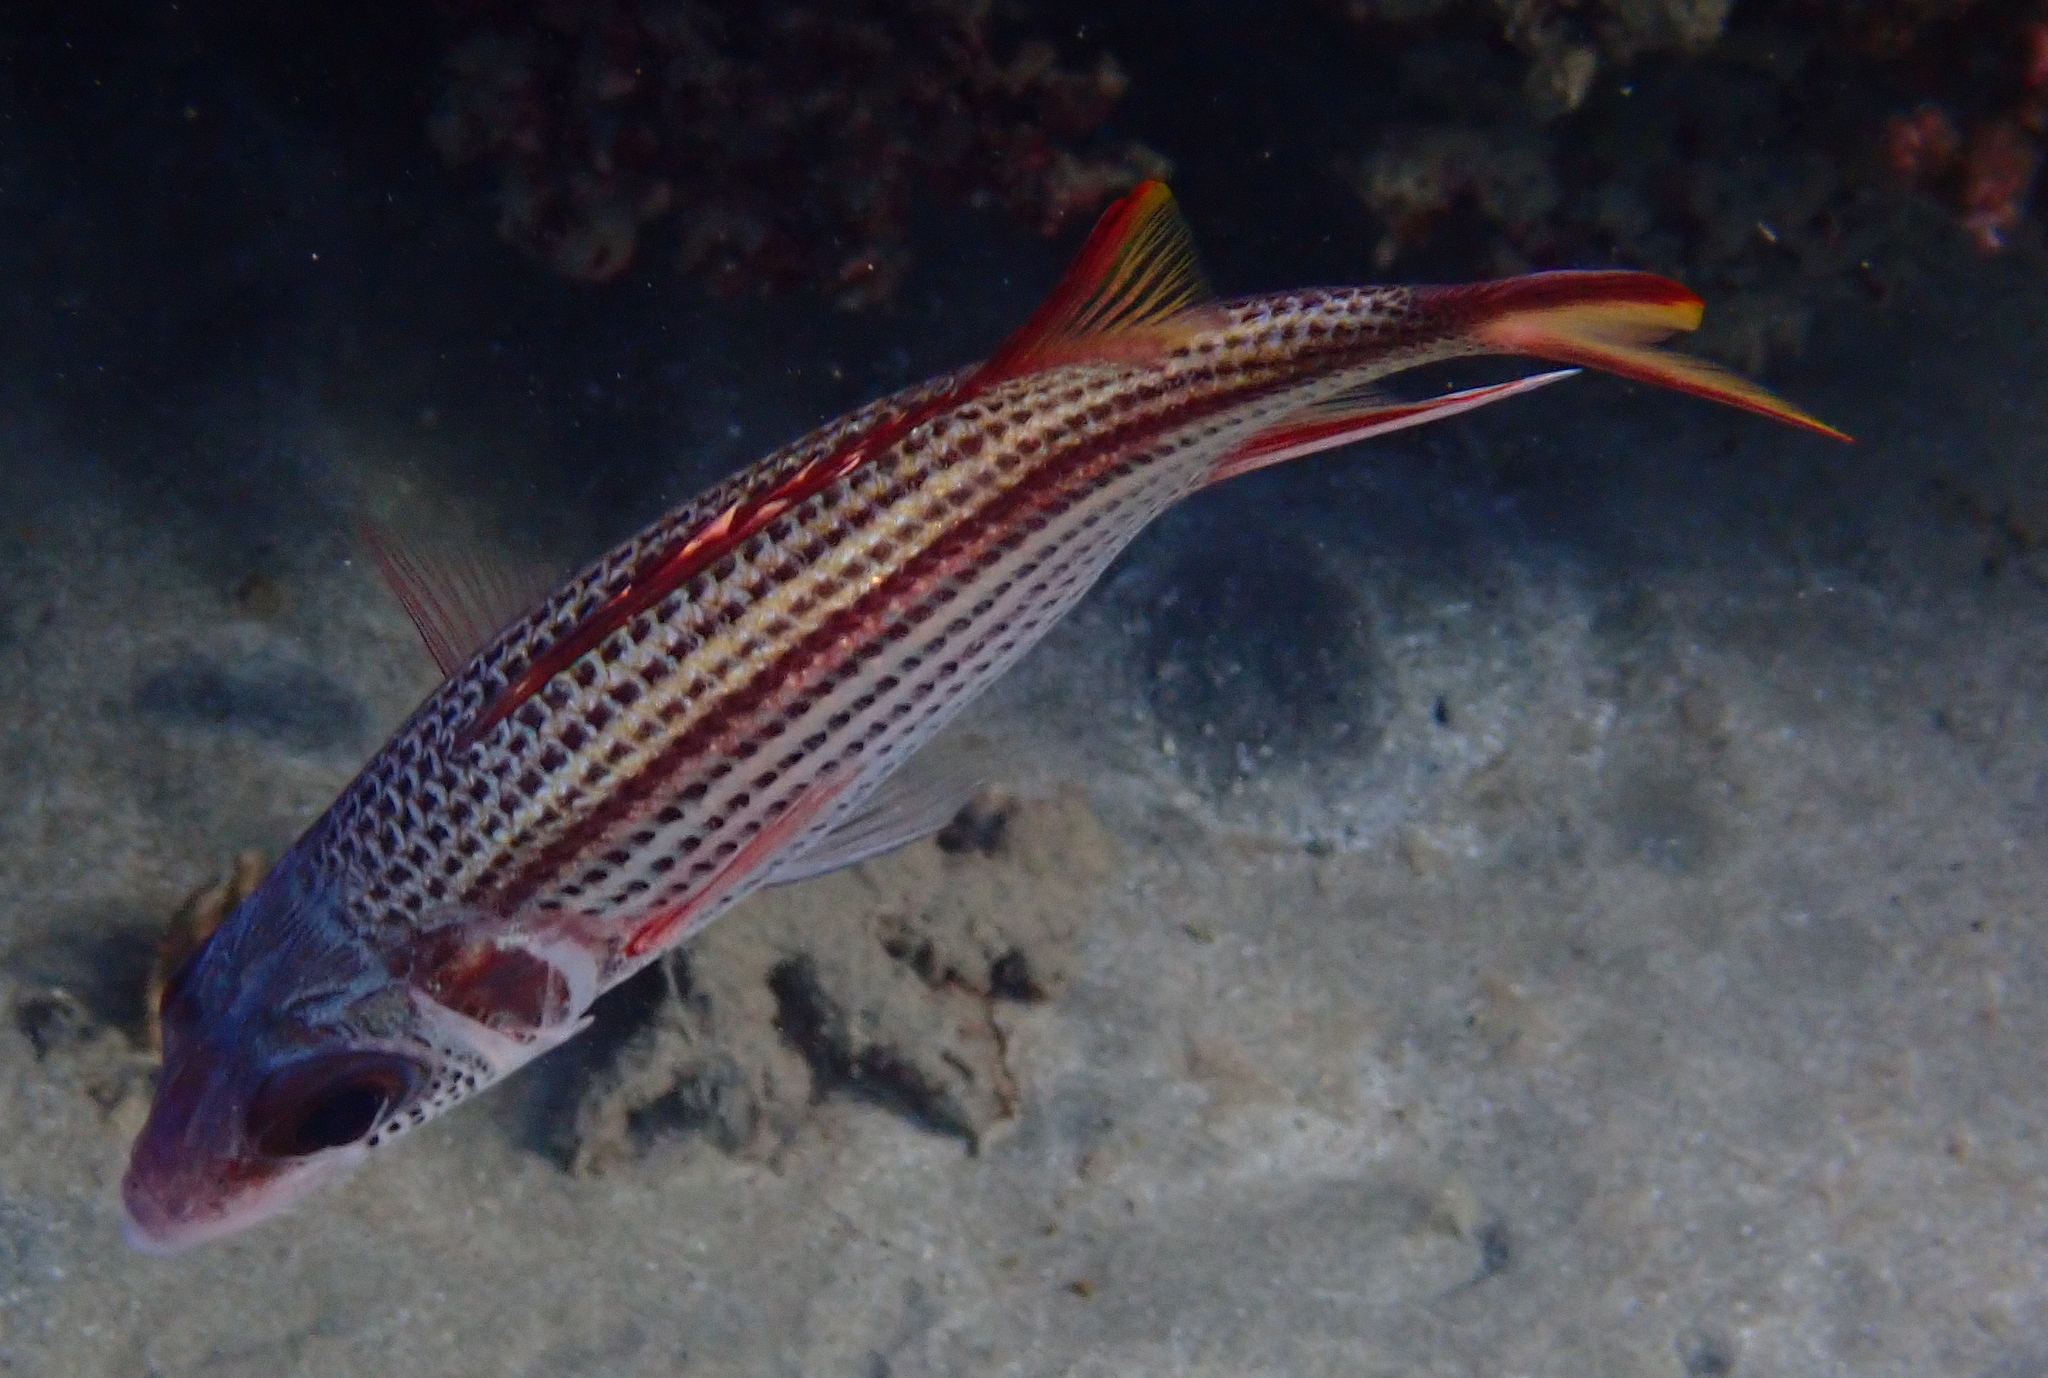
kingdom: Animalia
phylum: Chordata
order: Beryciformes
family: Holocentridae
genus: Neoniphon
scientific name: Neoniphon sammara
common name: Sammara squirrelfish
